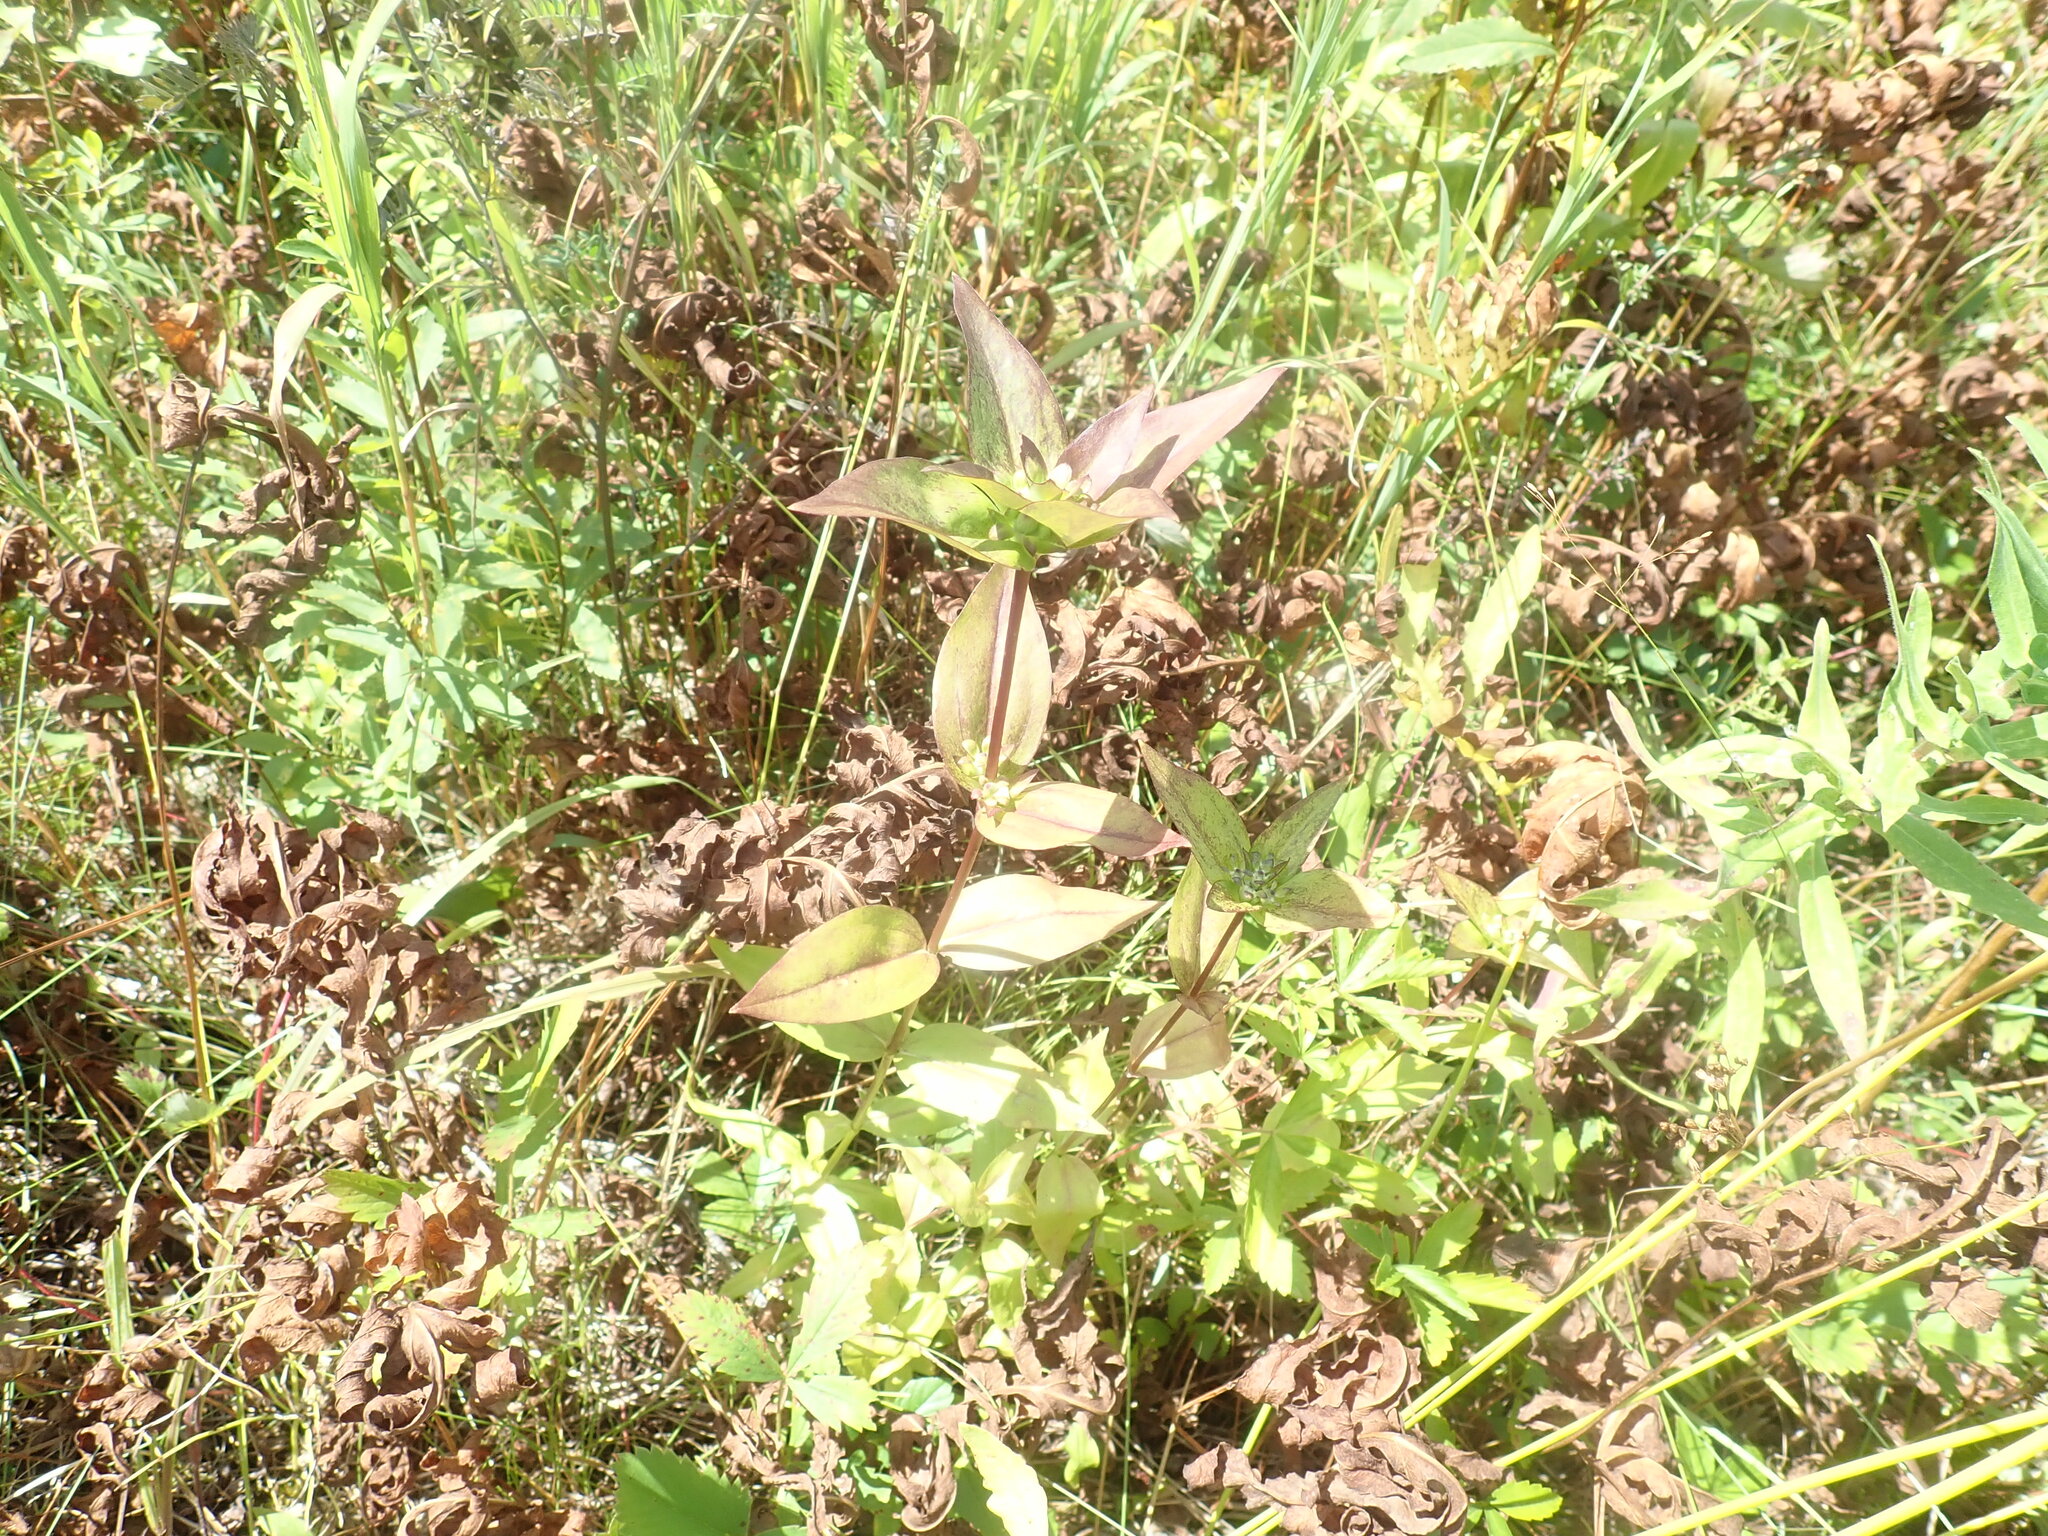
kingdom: Plantae
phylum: Tracheophyta
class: Magnoliopsida
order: Gentianales
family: Gentianaceae
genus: Gentiana
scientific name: Gentiana clausa
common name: Blind gentian
